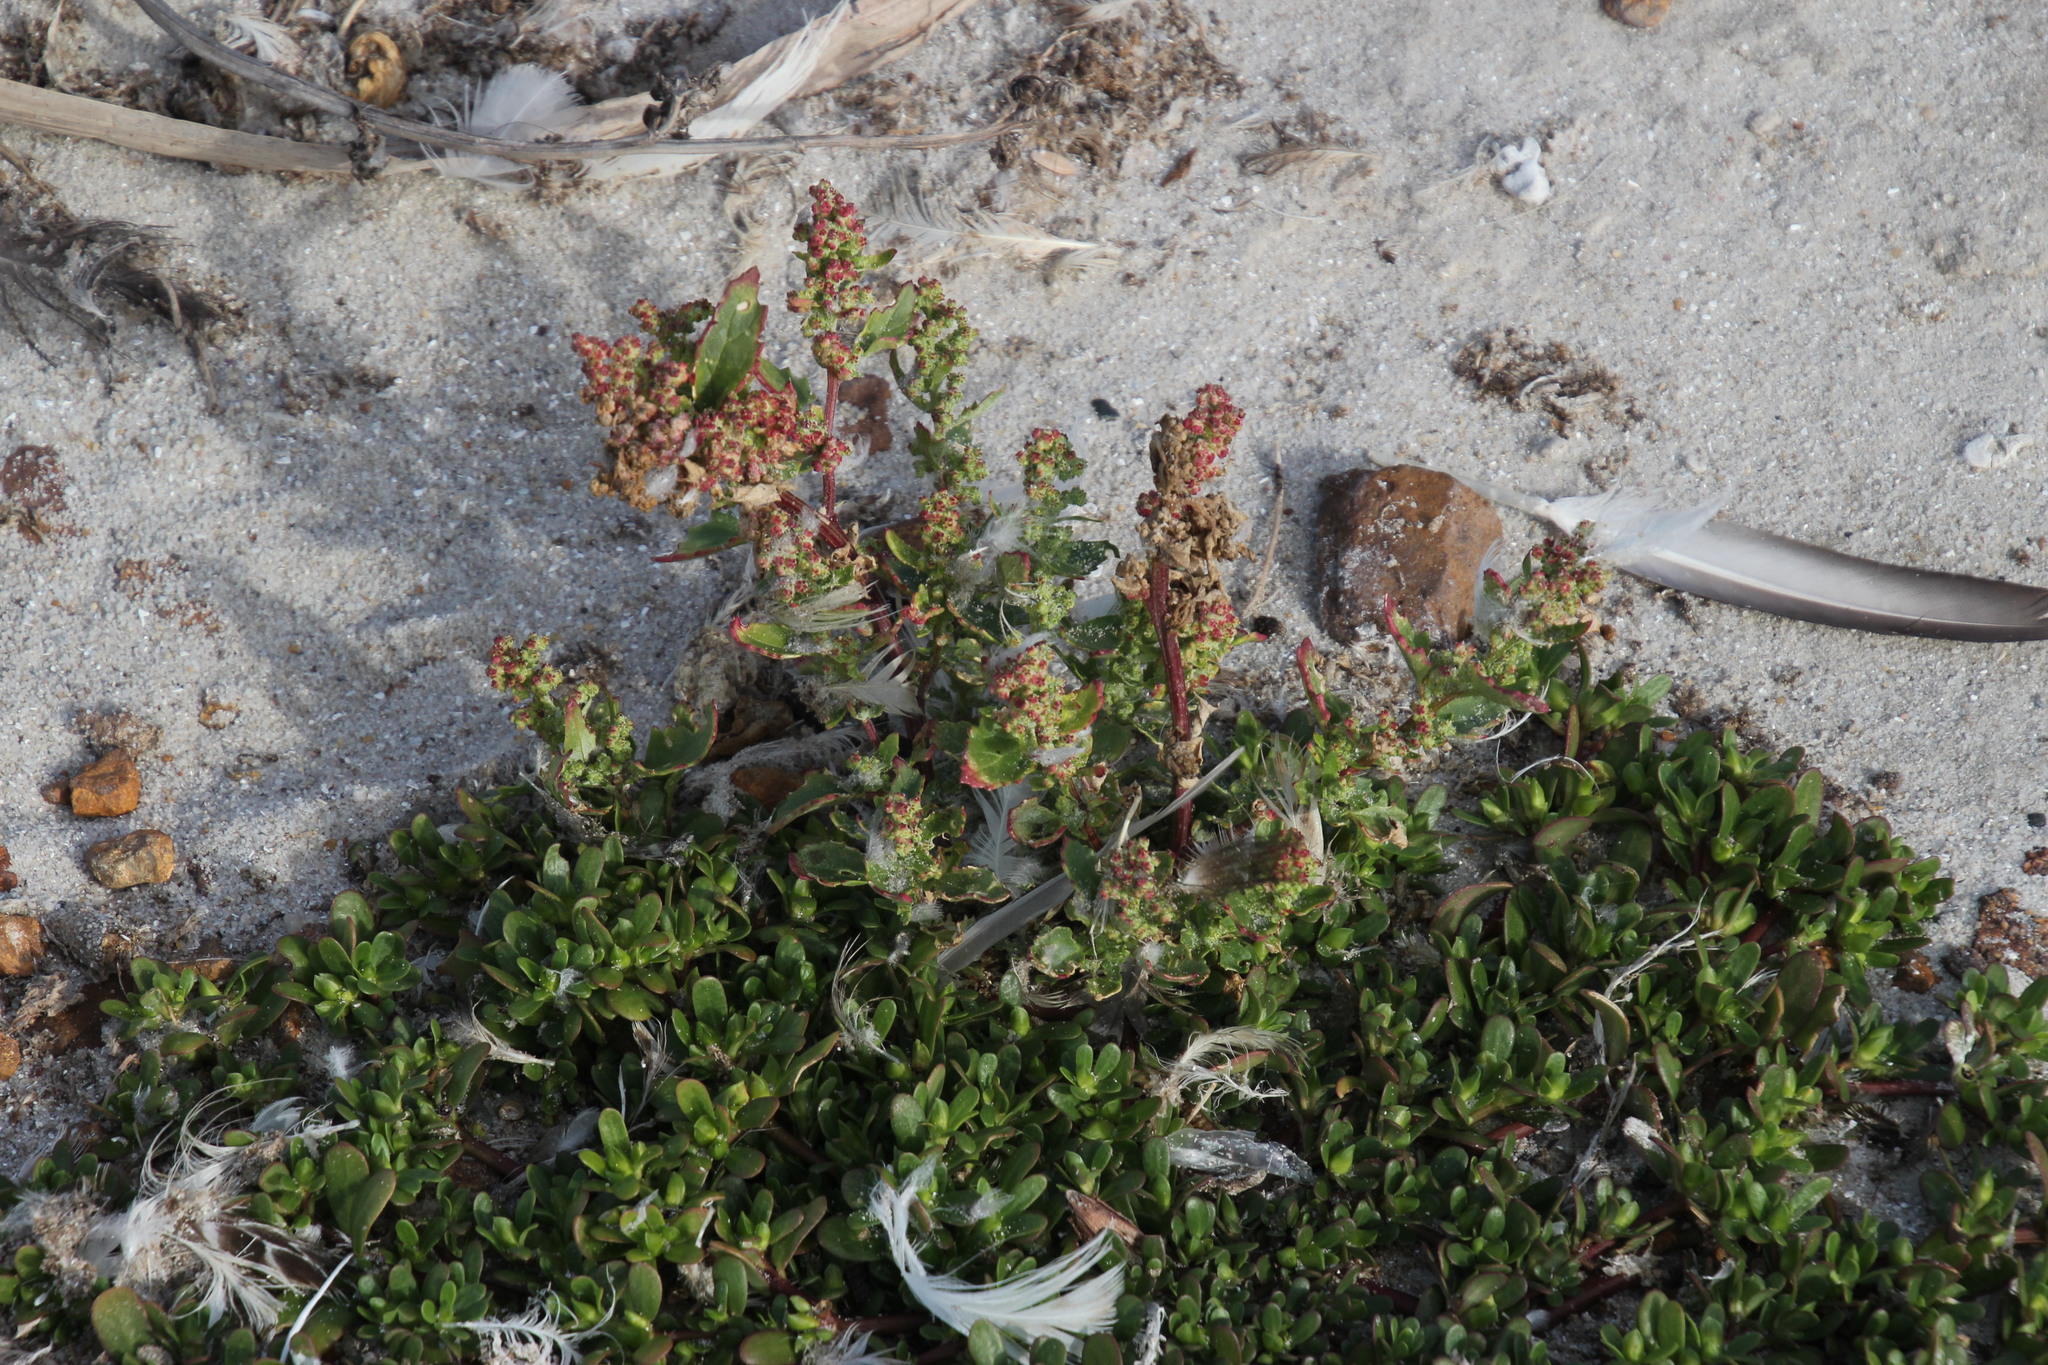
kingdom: Plantae
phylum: Tracheophyta
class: Magnoliopsida
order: Caryophyllales
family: Amaranthaceae
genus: Chenopodiastrum
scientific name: Chenopodiastrum murale
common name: Sowbane
